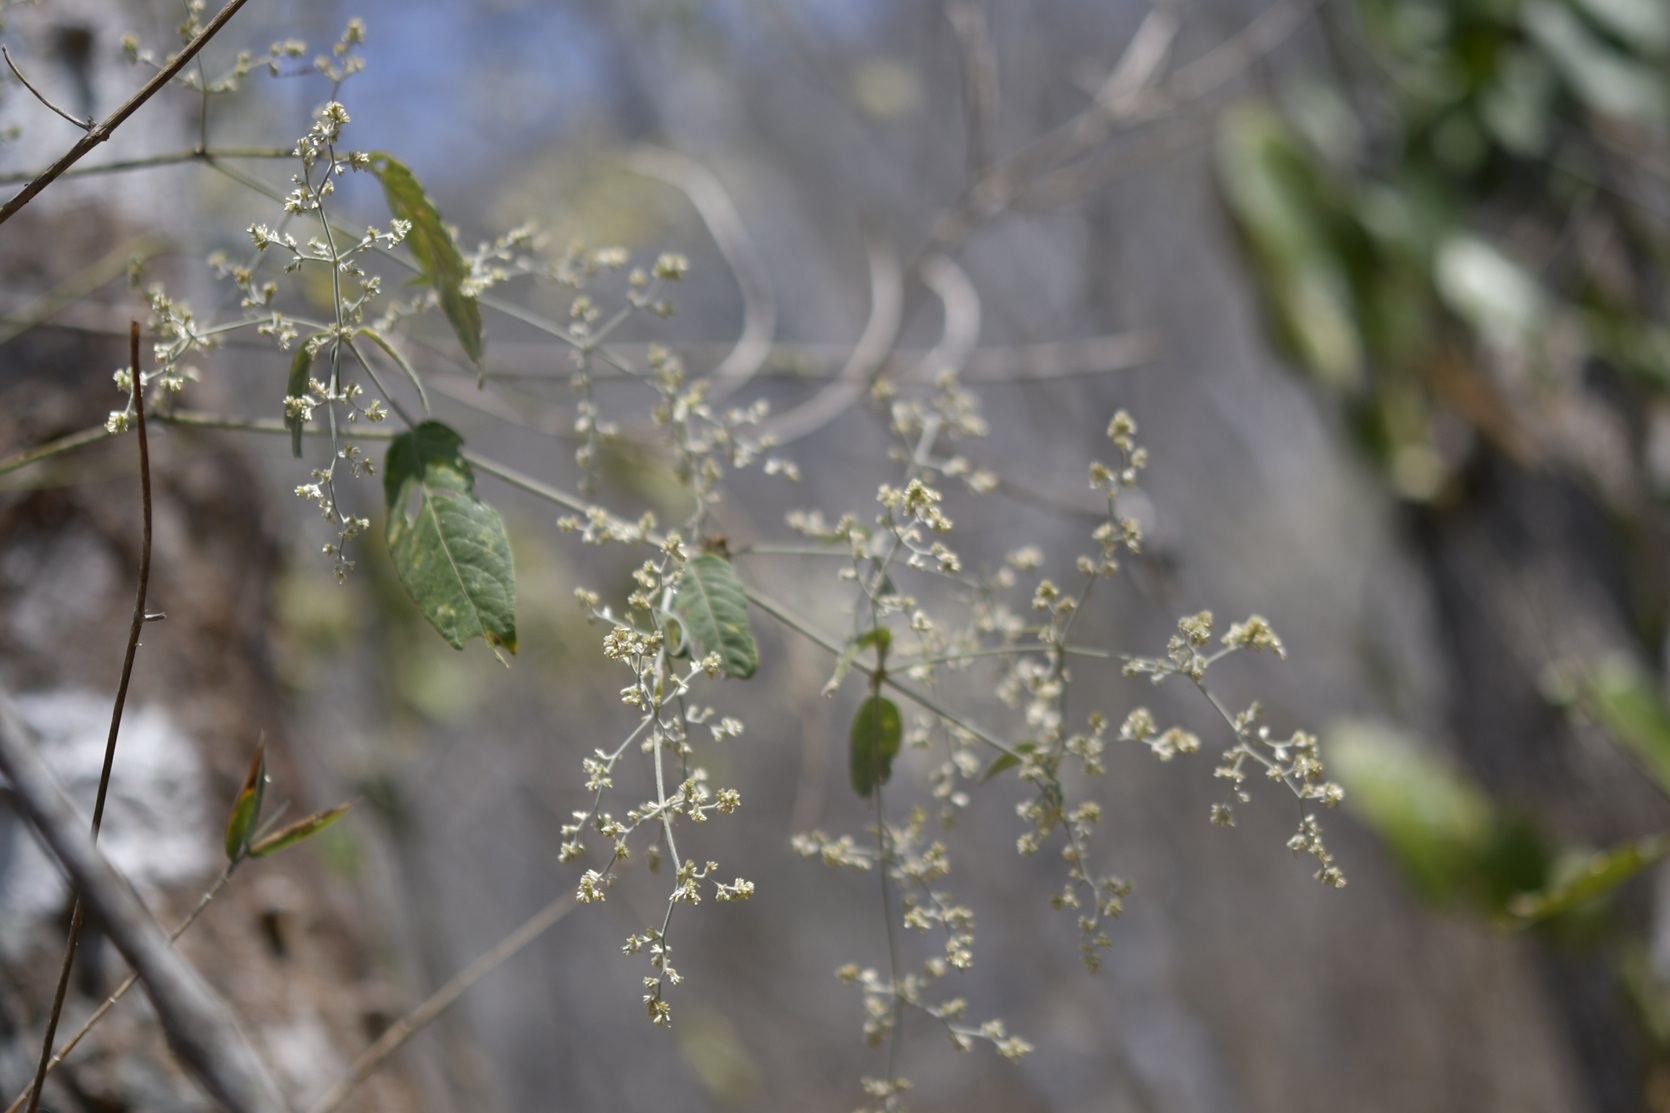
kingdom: Plantae
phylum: Tracheophyta
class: Magnoliopsida
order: Caryophyllales
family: Amaranthaceae
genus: Iresine
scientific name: Iresine diffusa
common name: Juba's-bush
